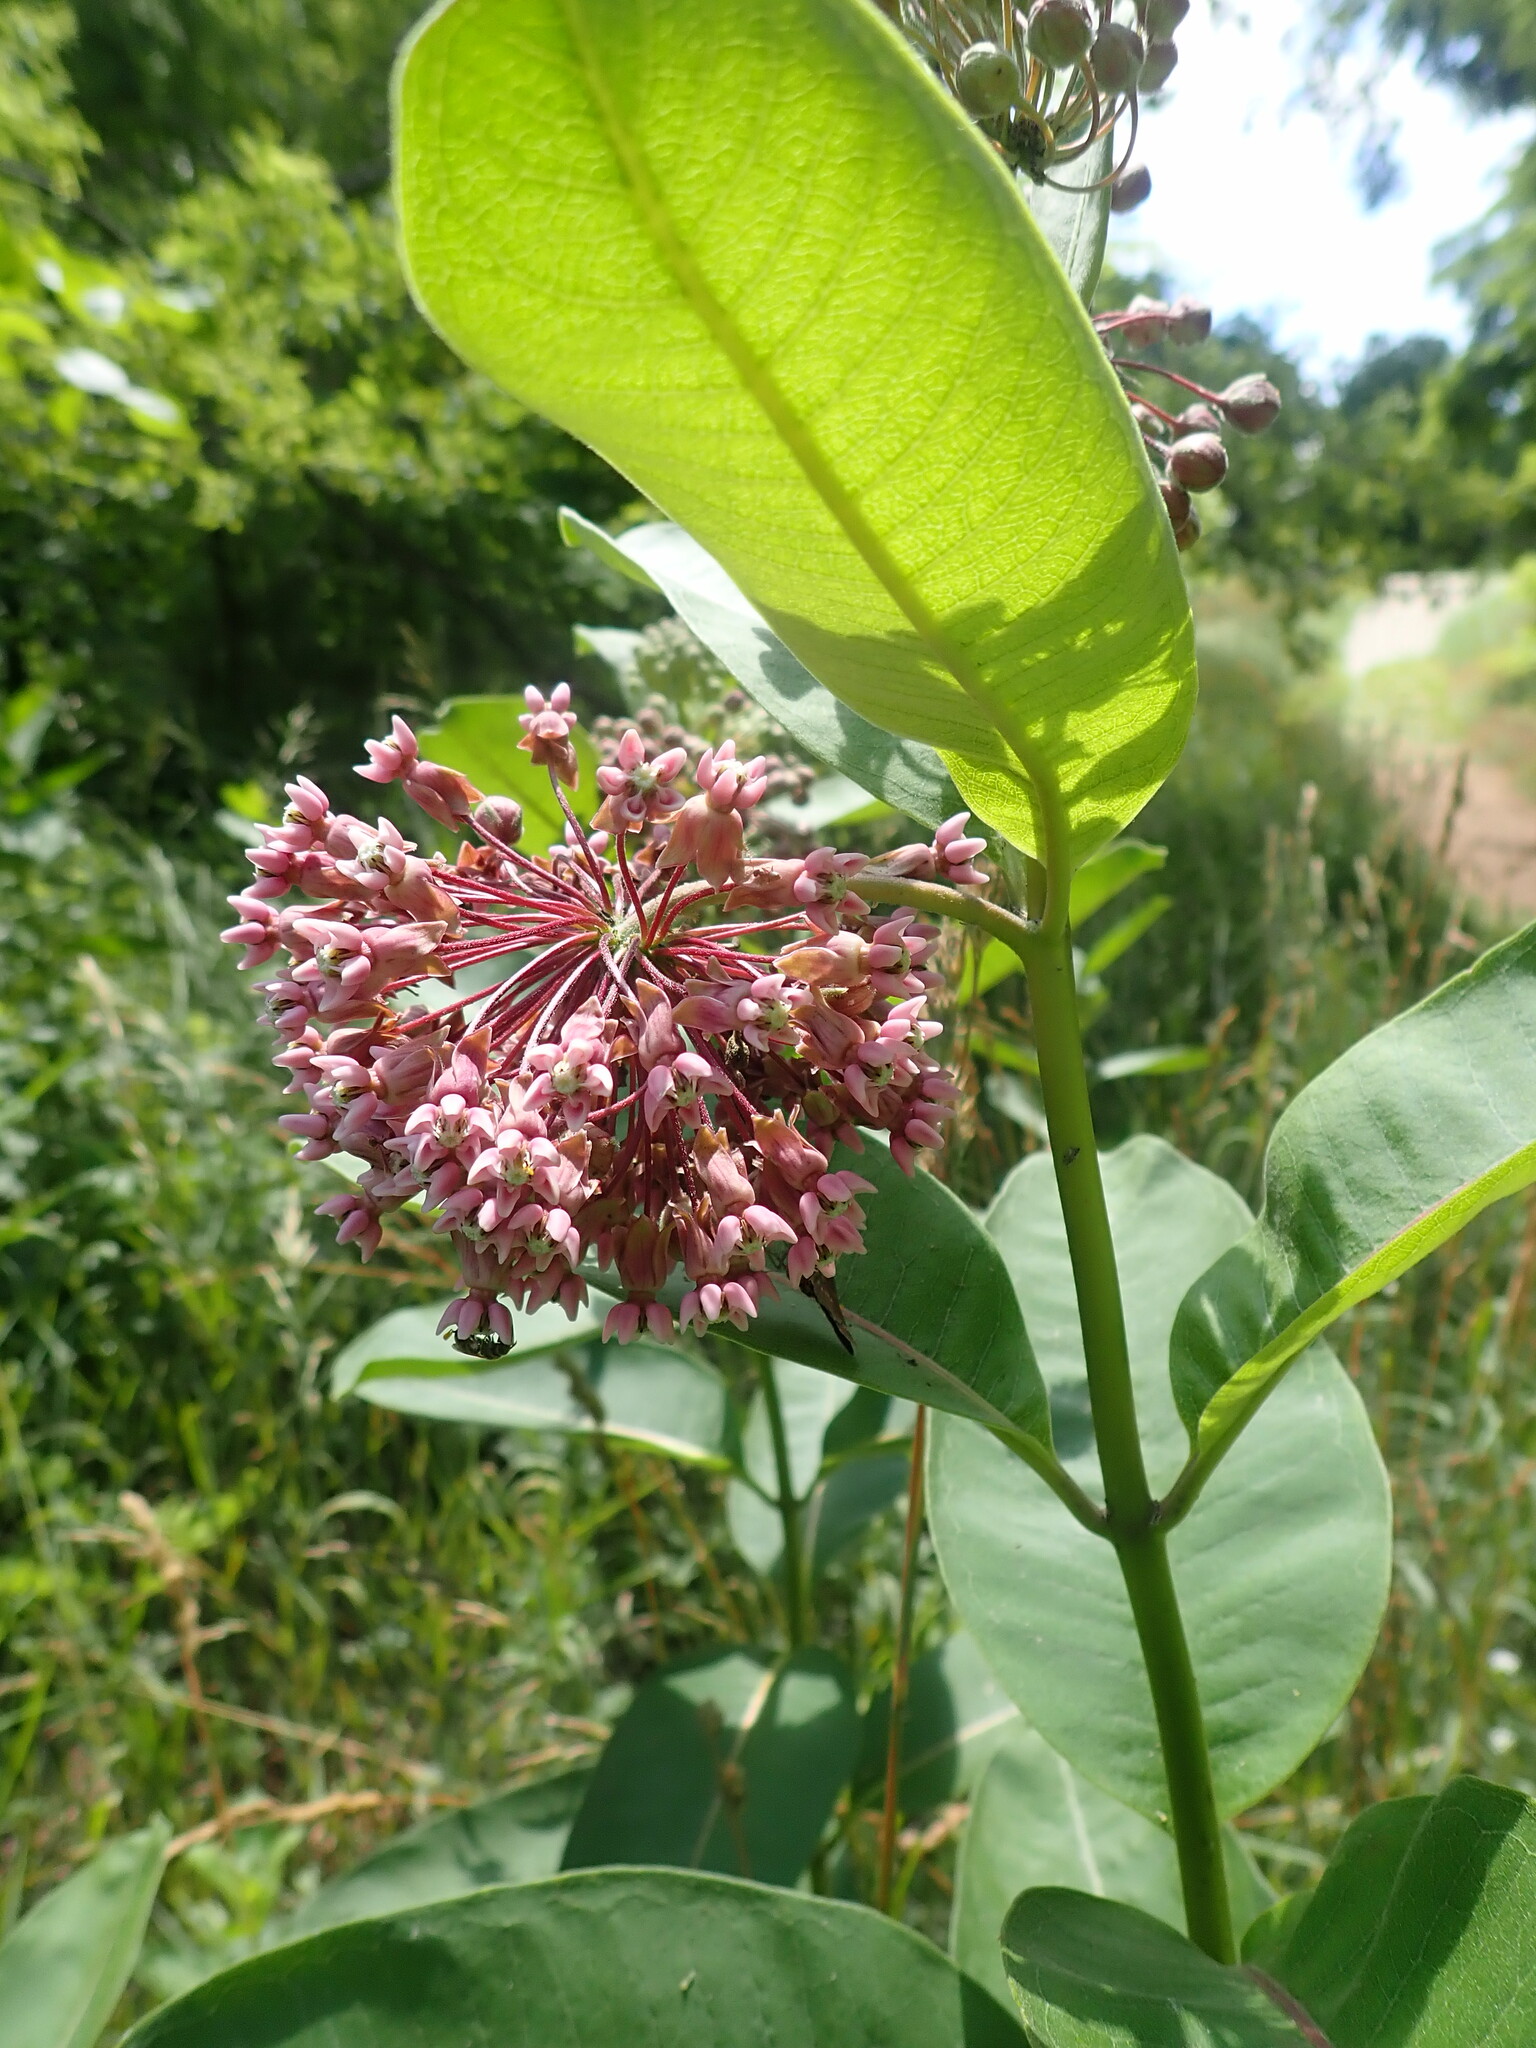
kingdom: Plantae
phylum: Tracheophyta
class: Magnoliopsida
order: Gentianales
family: Apocynaceae
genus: Asclepias
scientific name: Asclepias syriaca
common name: Common milkweed
